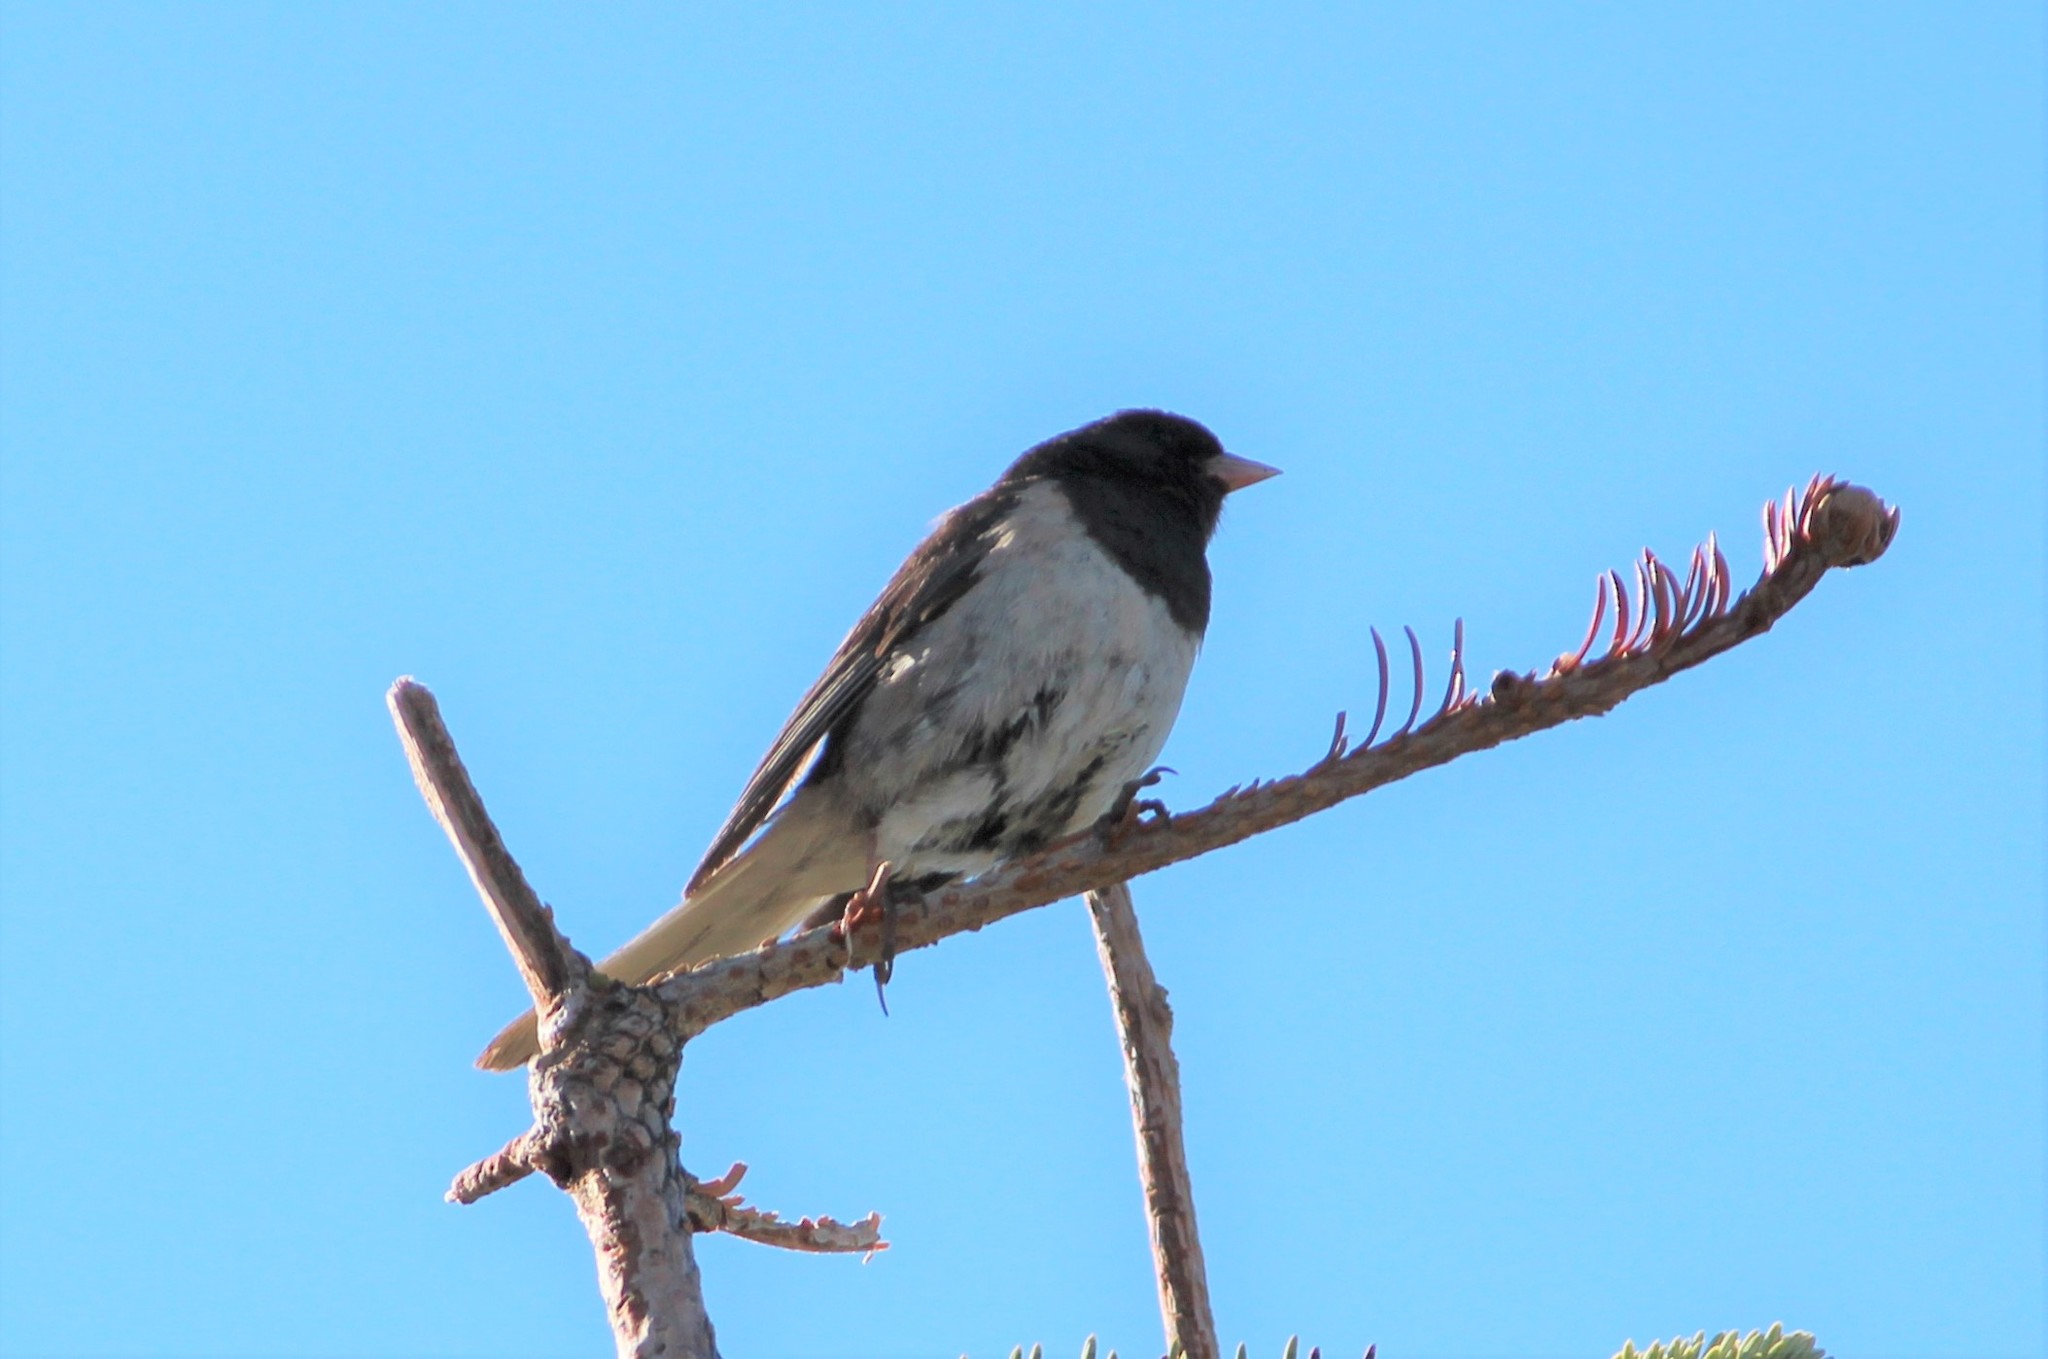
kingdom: Animalia
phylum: Chordata
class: Aves
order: Passeriformes
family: Passerellidae
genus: Junco
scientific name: Junco hyemalis
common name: Dark-eyed junco
